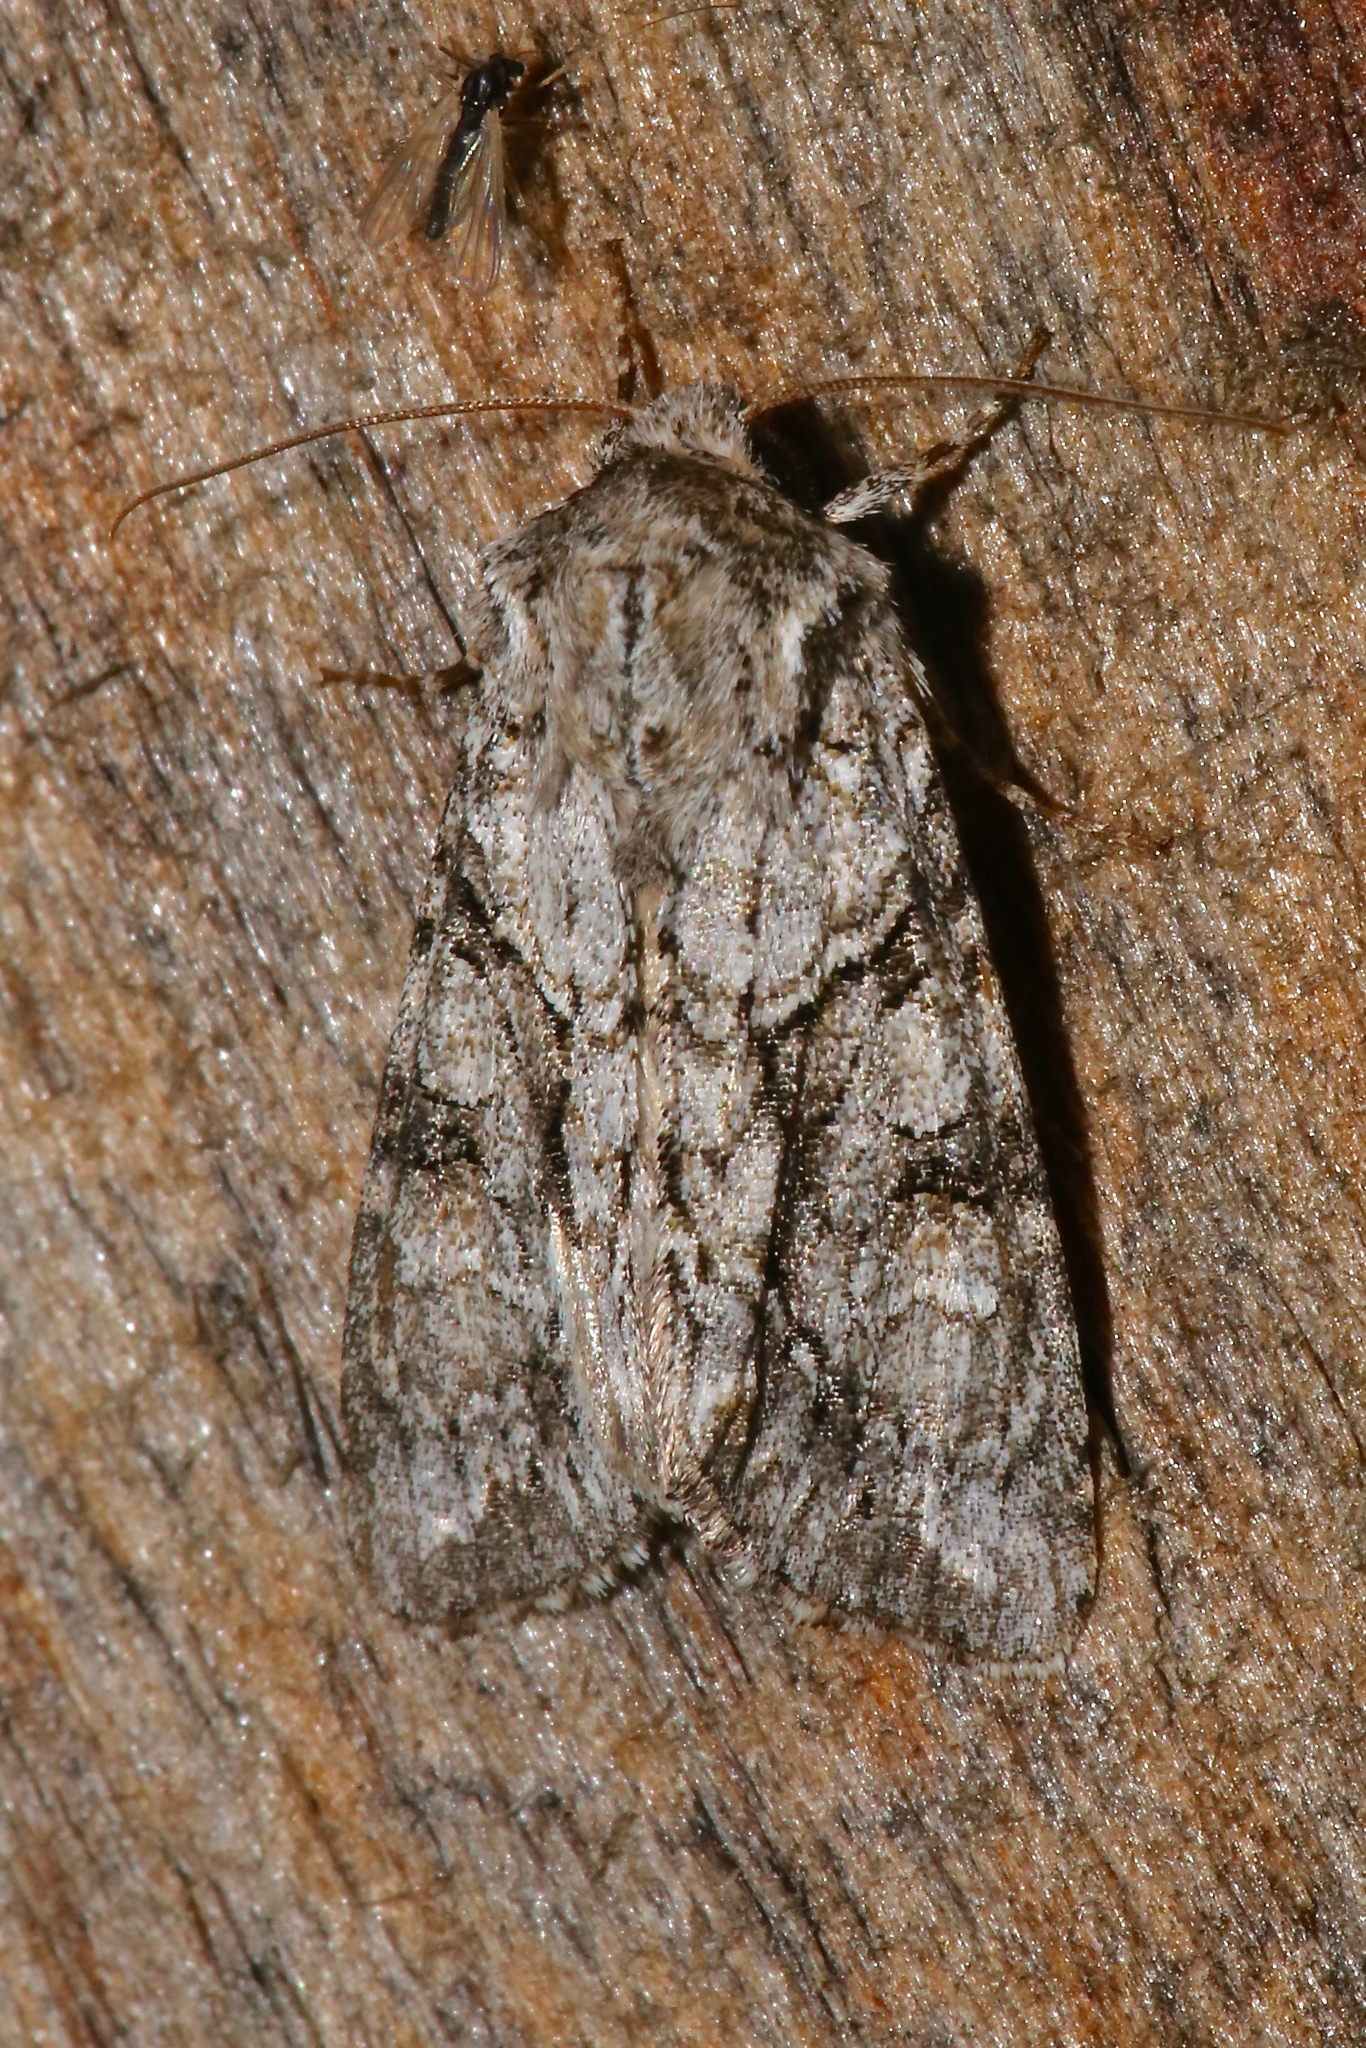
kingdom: Animalia
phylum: Arthropoda
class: Insecta
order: Lepidoptera
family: Noctuidae
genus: Achatia
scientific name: Achatia distincta
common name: Distinct quaker
